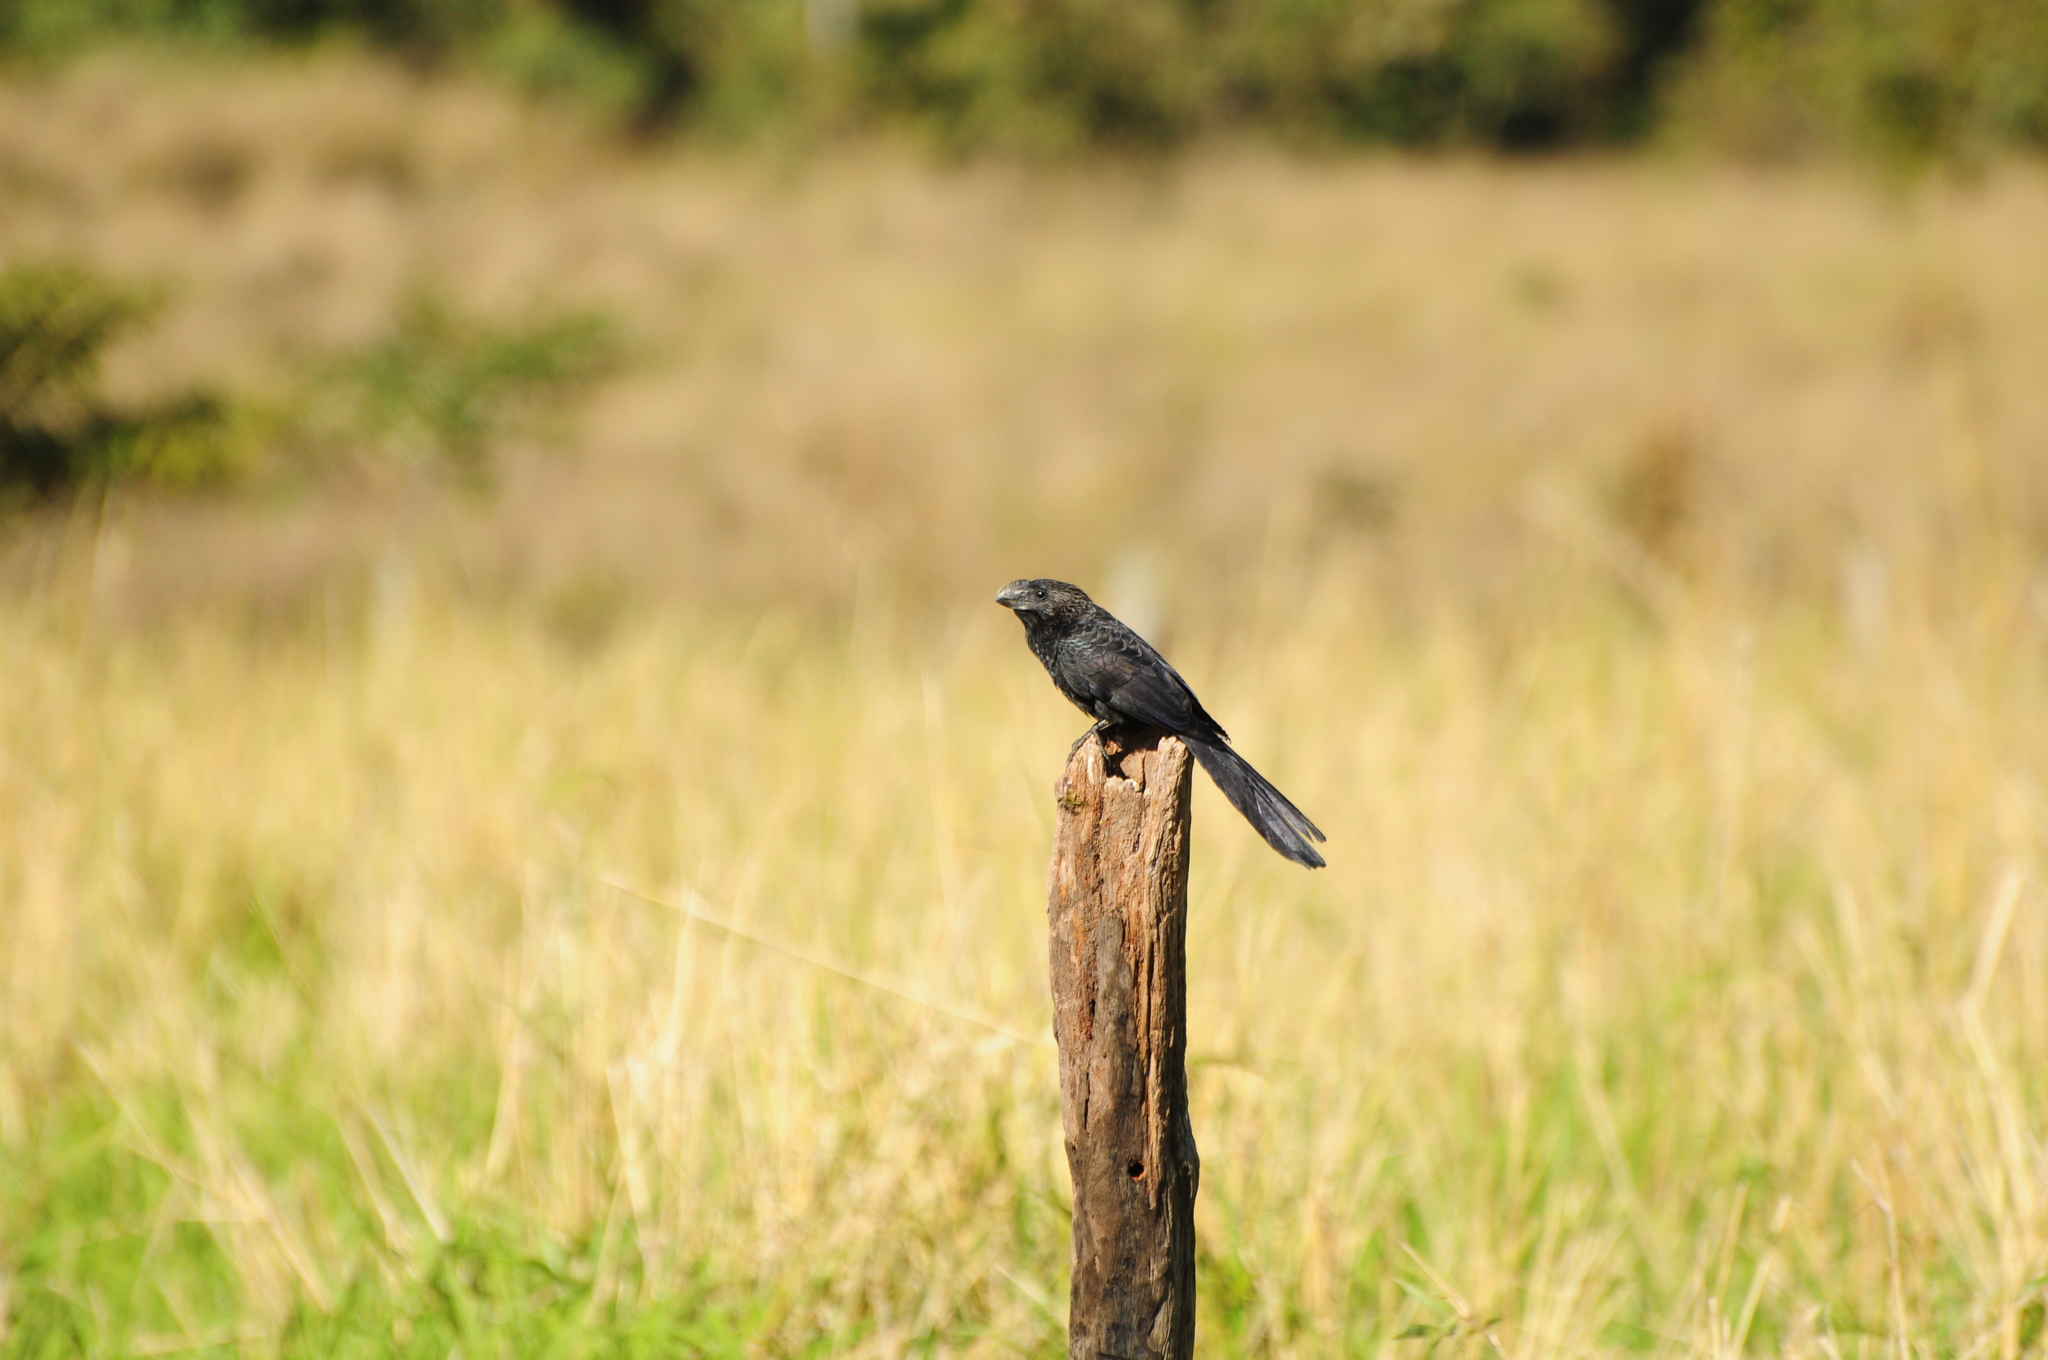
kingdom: Animalia
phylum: Chordata
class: Aves
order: Cuculiformes
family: Cuculidae
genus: Crotophaga
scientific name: Crotophaga ani
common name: Smooth-billed ani
